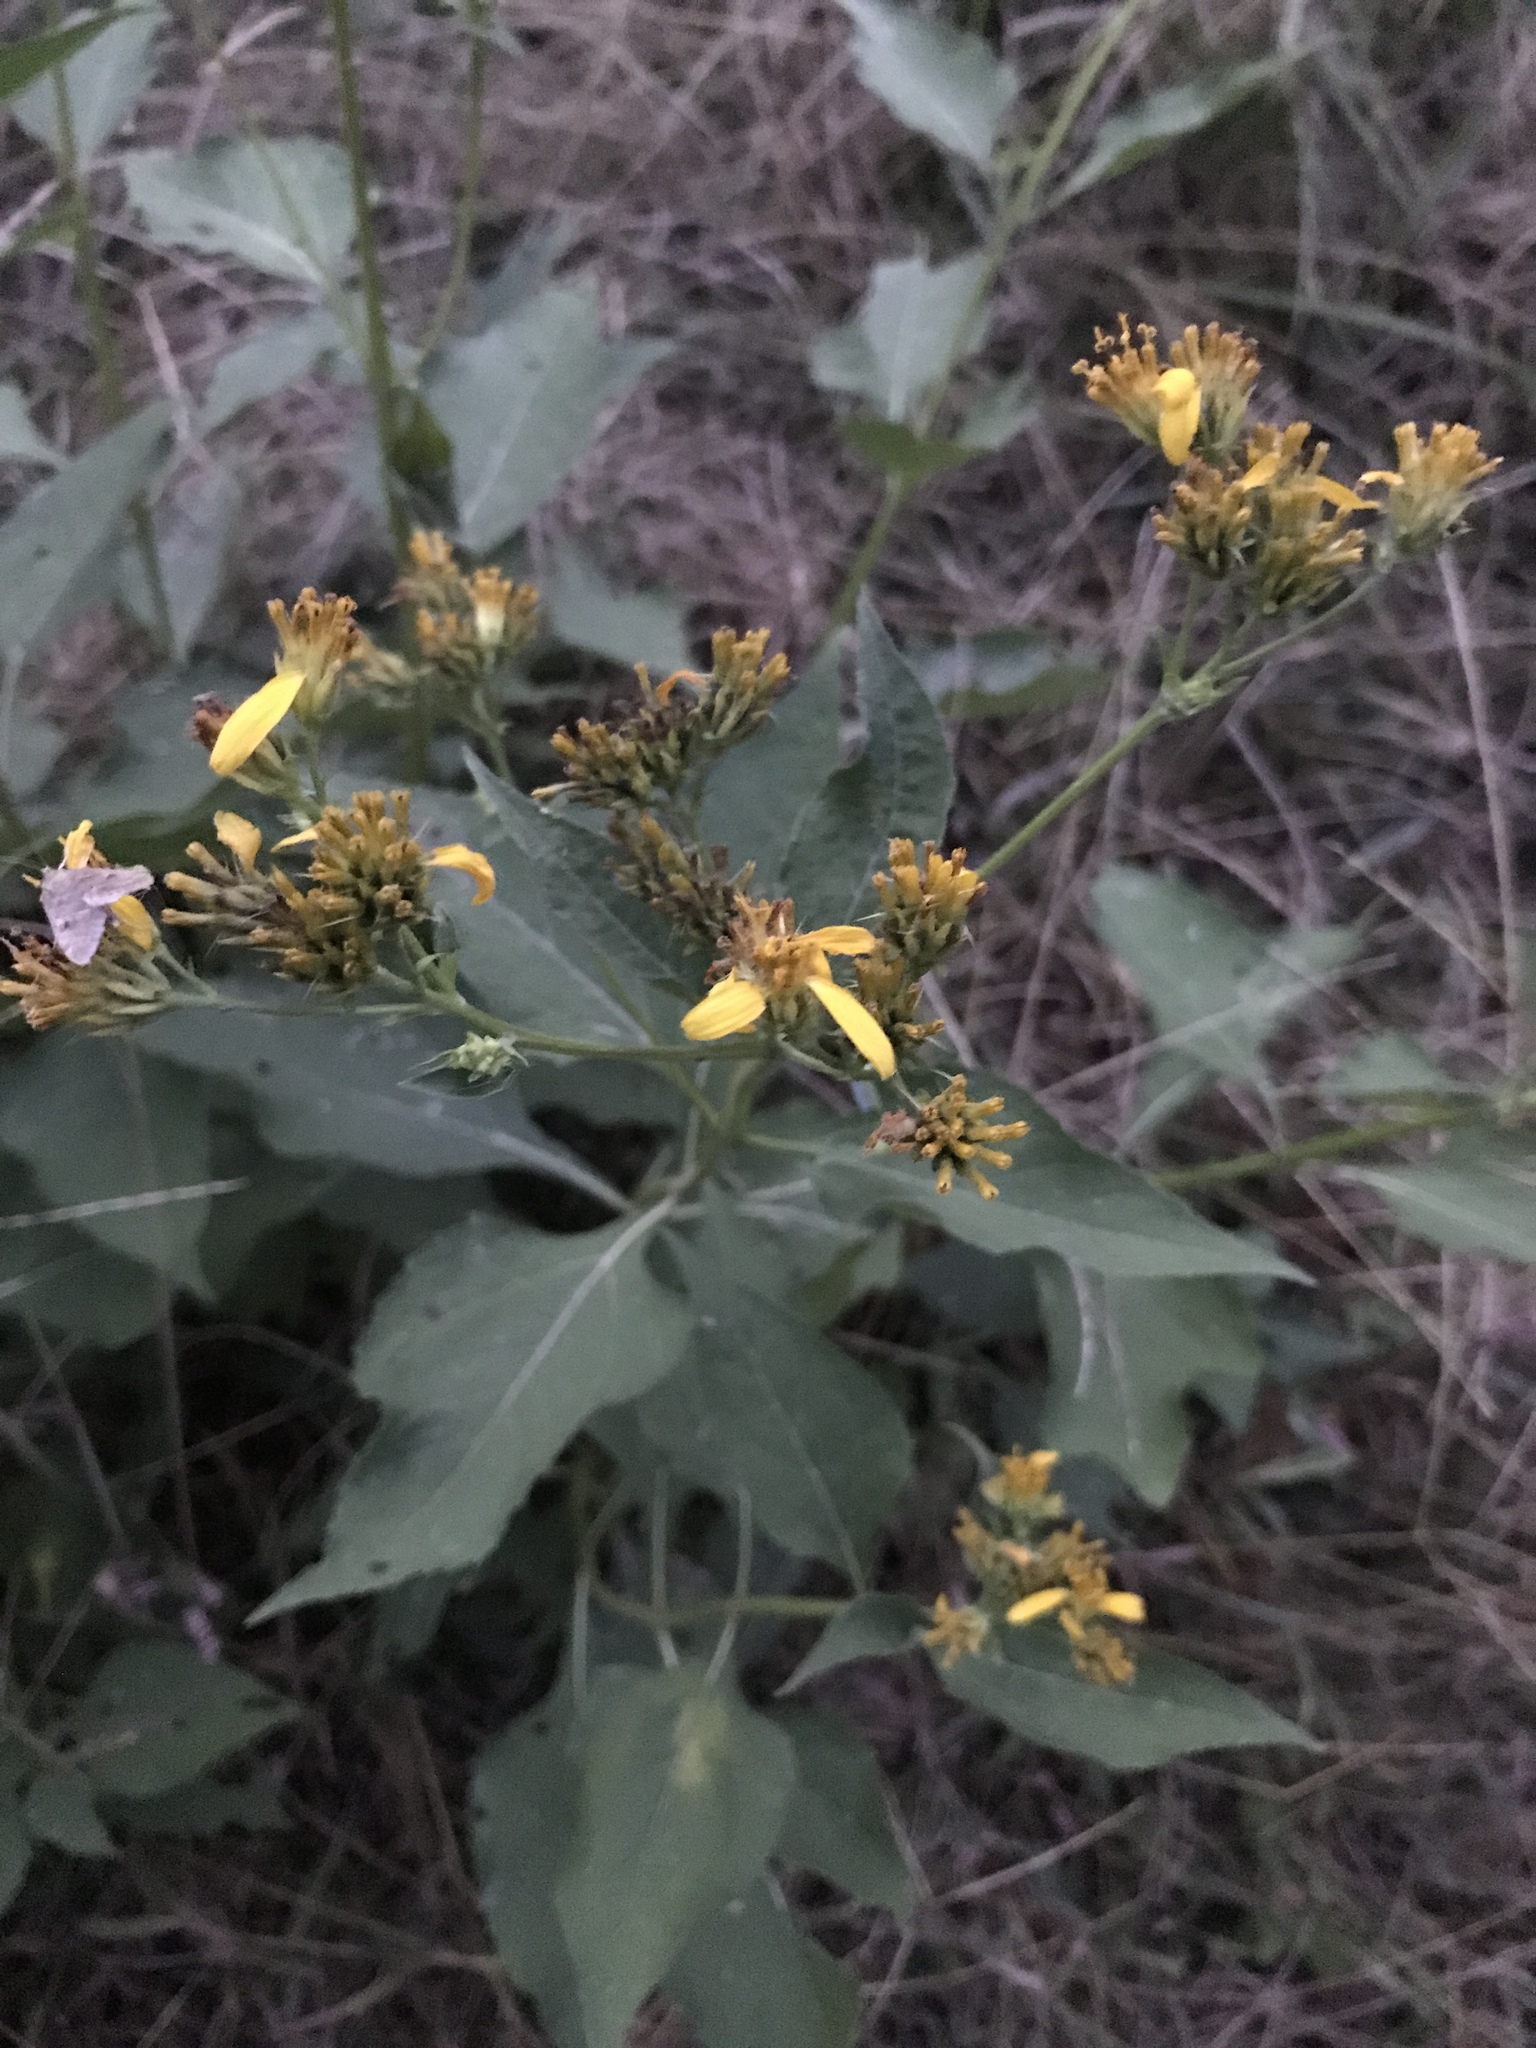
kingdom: Plantae
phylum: Tracheophyta
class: Magnoliopsida
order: Asterales
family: Asteraceae
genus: Verbesina
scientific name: Verbesina occidentalis
